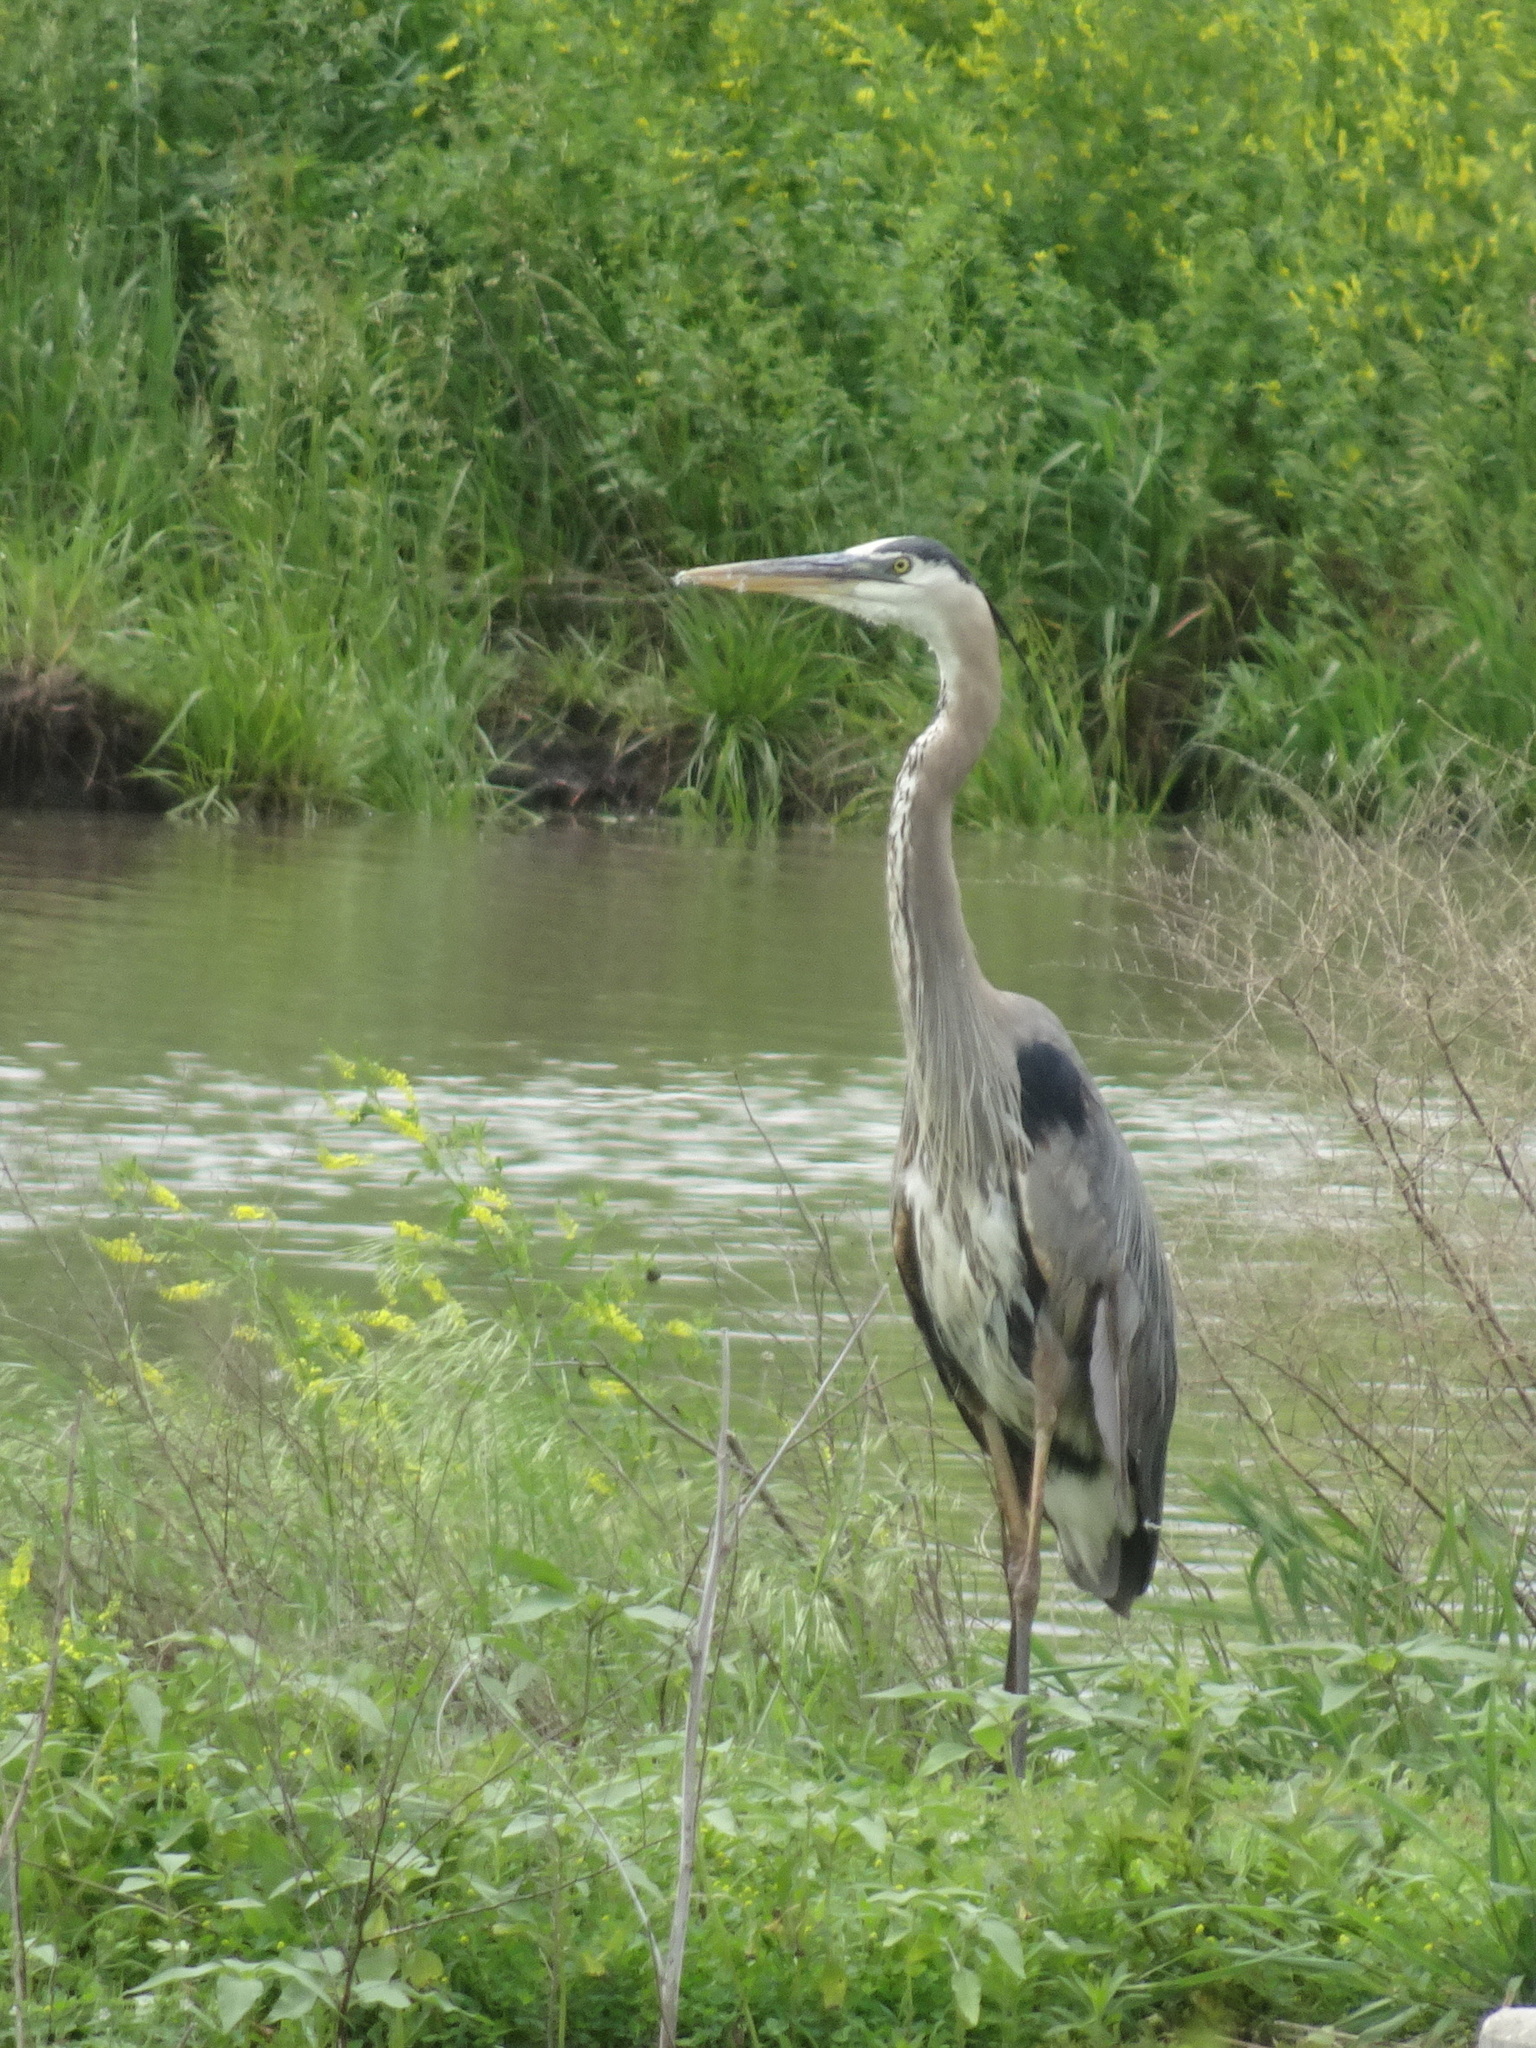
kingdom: Animalia
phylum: Chordata
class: Aves
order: Pelecaniformes
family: Ardeidae
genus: Ardea
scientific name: Ardea herodias
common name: Great blue heron
